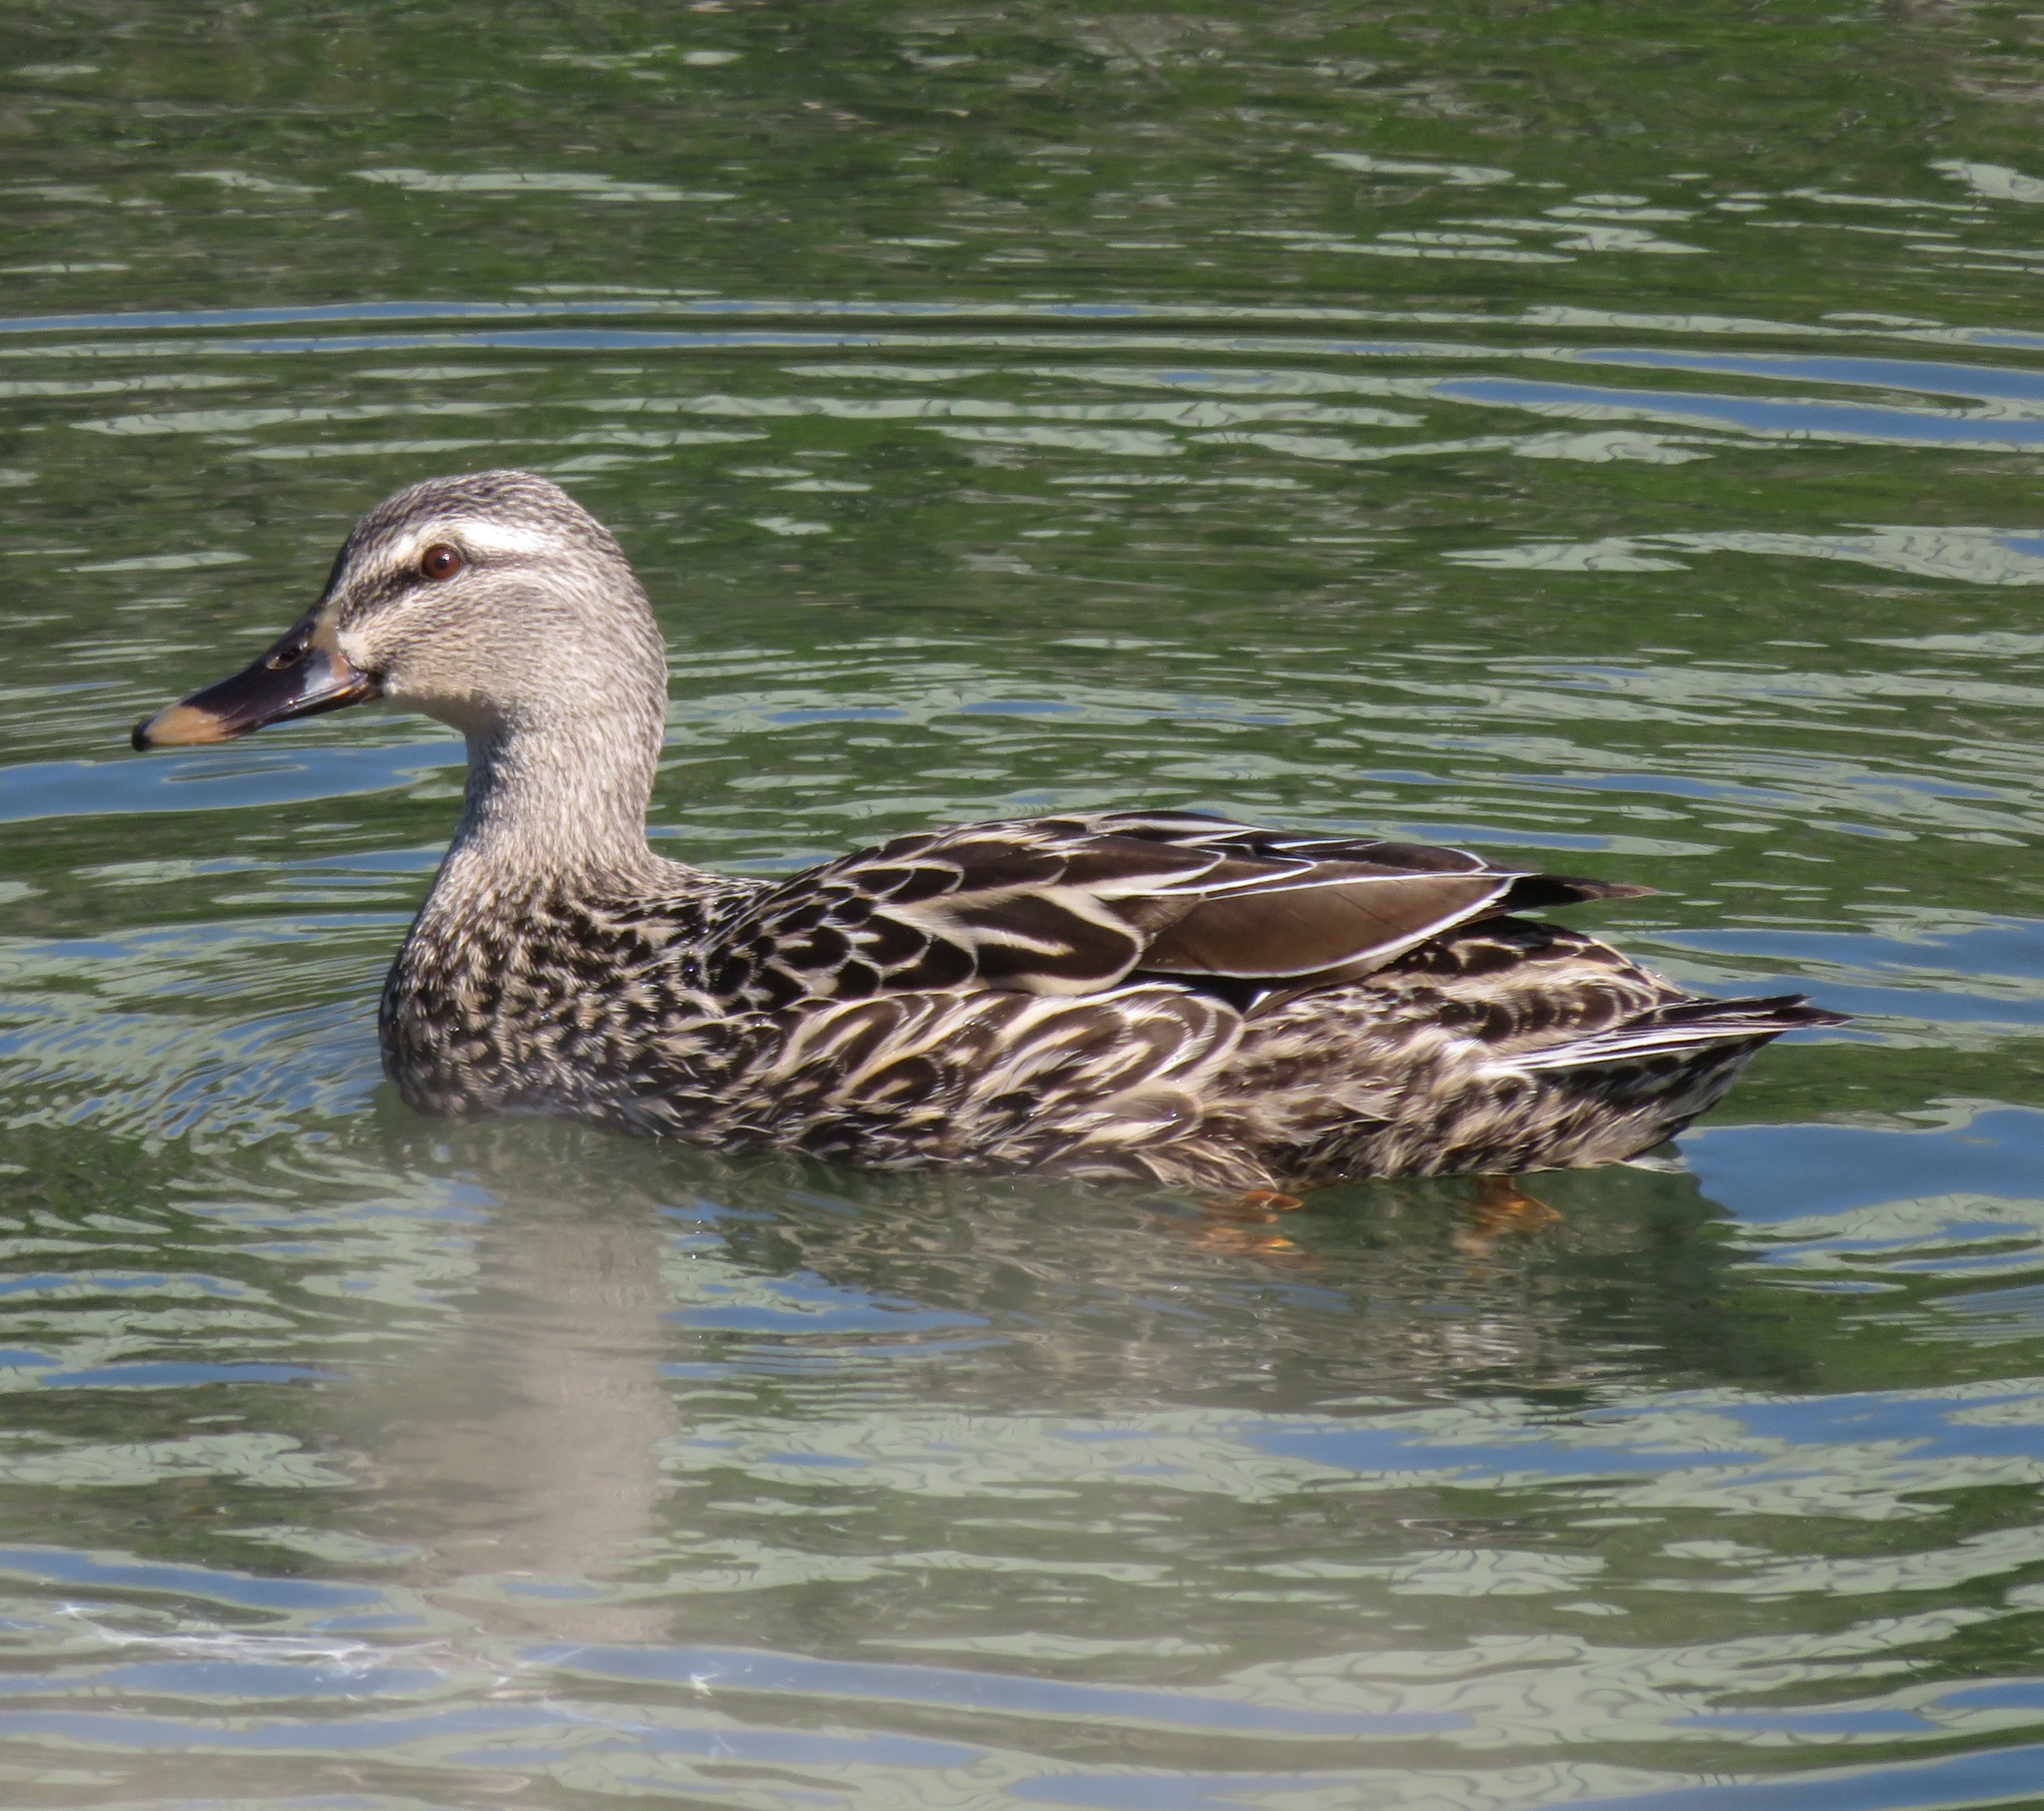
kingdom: Animalia
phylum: Chordata
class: Aves
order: Anseriformes
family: Anatidae
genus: Anas
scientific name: Anas
